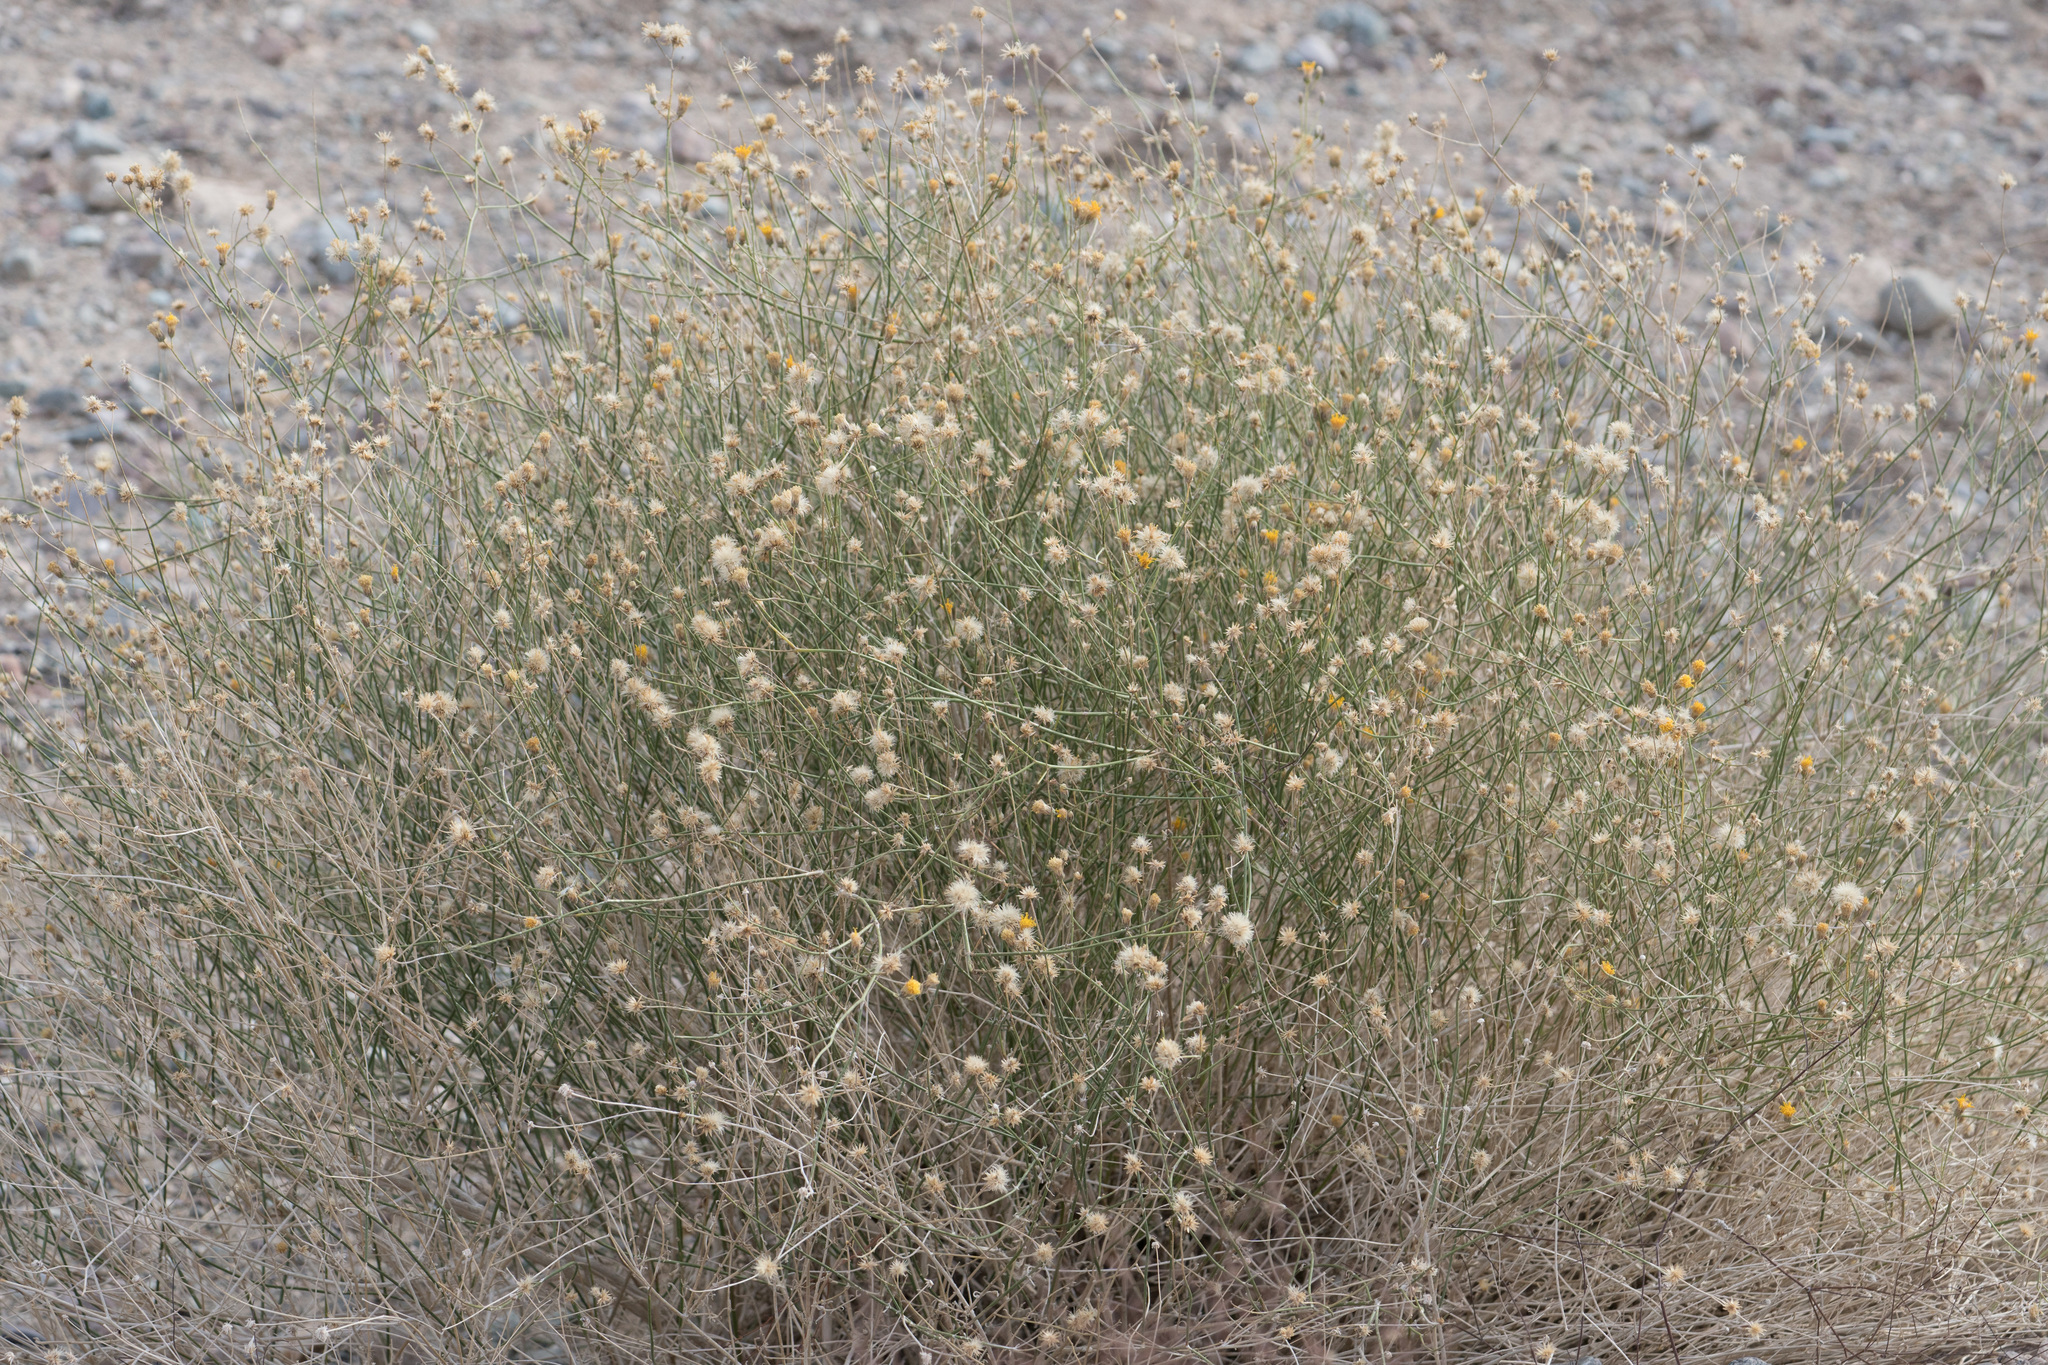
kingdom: Plantae
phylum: Tracheophyta
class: Magnoliopsida
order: Asterales
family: Asteraceae
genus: Bebbia
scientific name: Bebbia juncea
